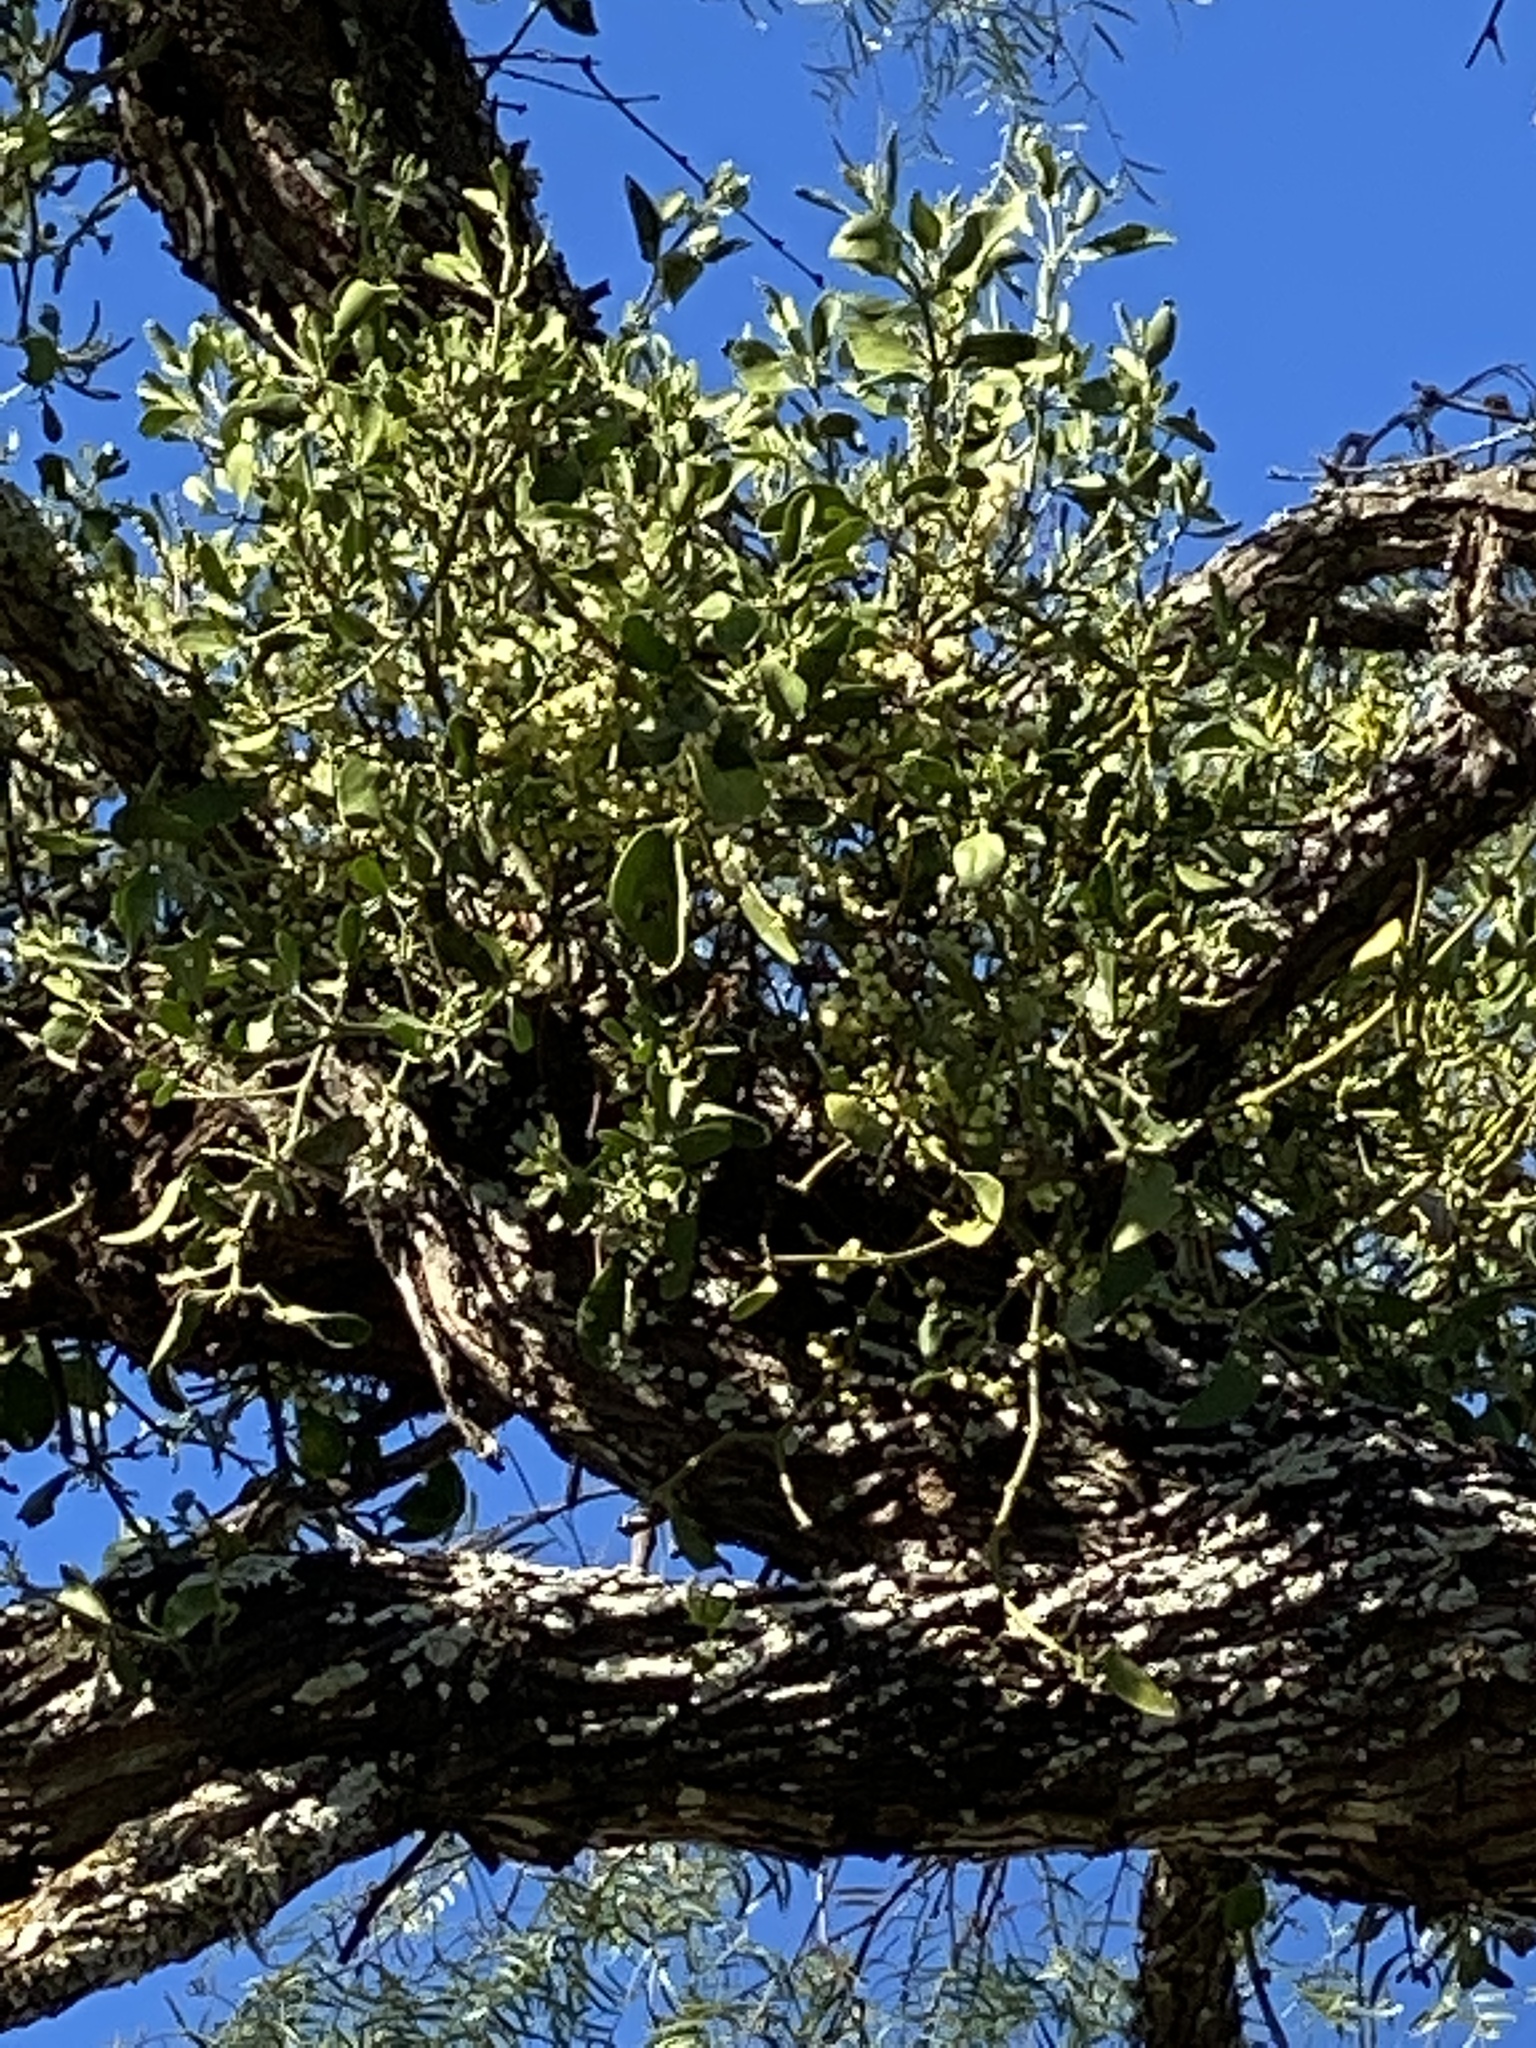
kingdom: Plantae
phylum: Tracheophyta
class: Magnoliopsida
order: Santalales
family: Viscaceae
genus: Phoradendron
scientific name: Phoradendron leucarpum
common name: Pacific mistletoe
